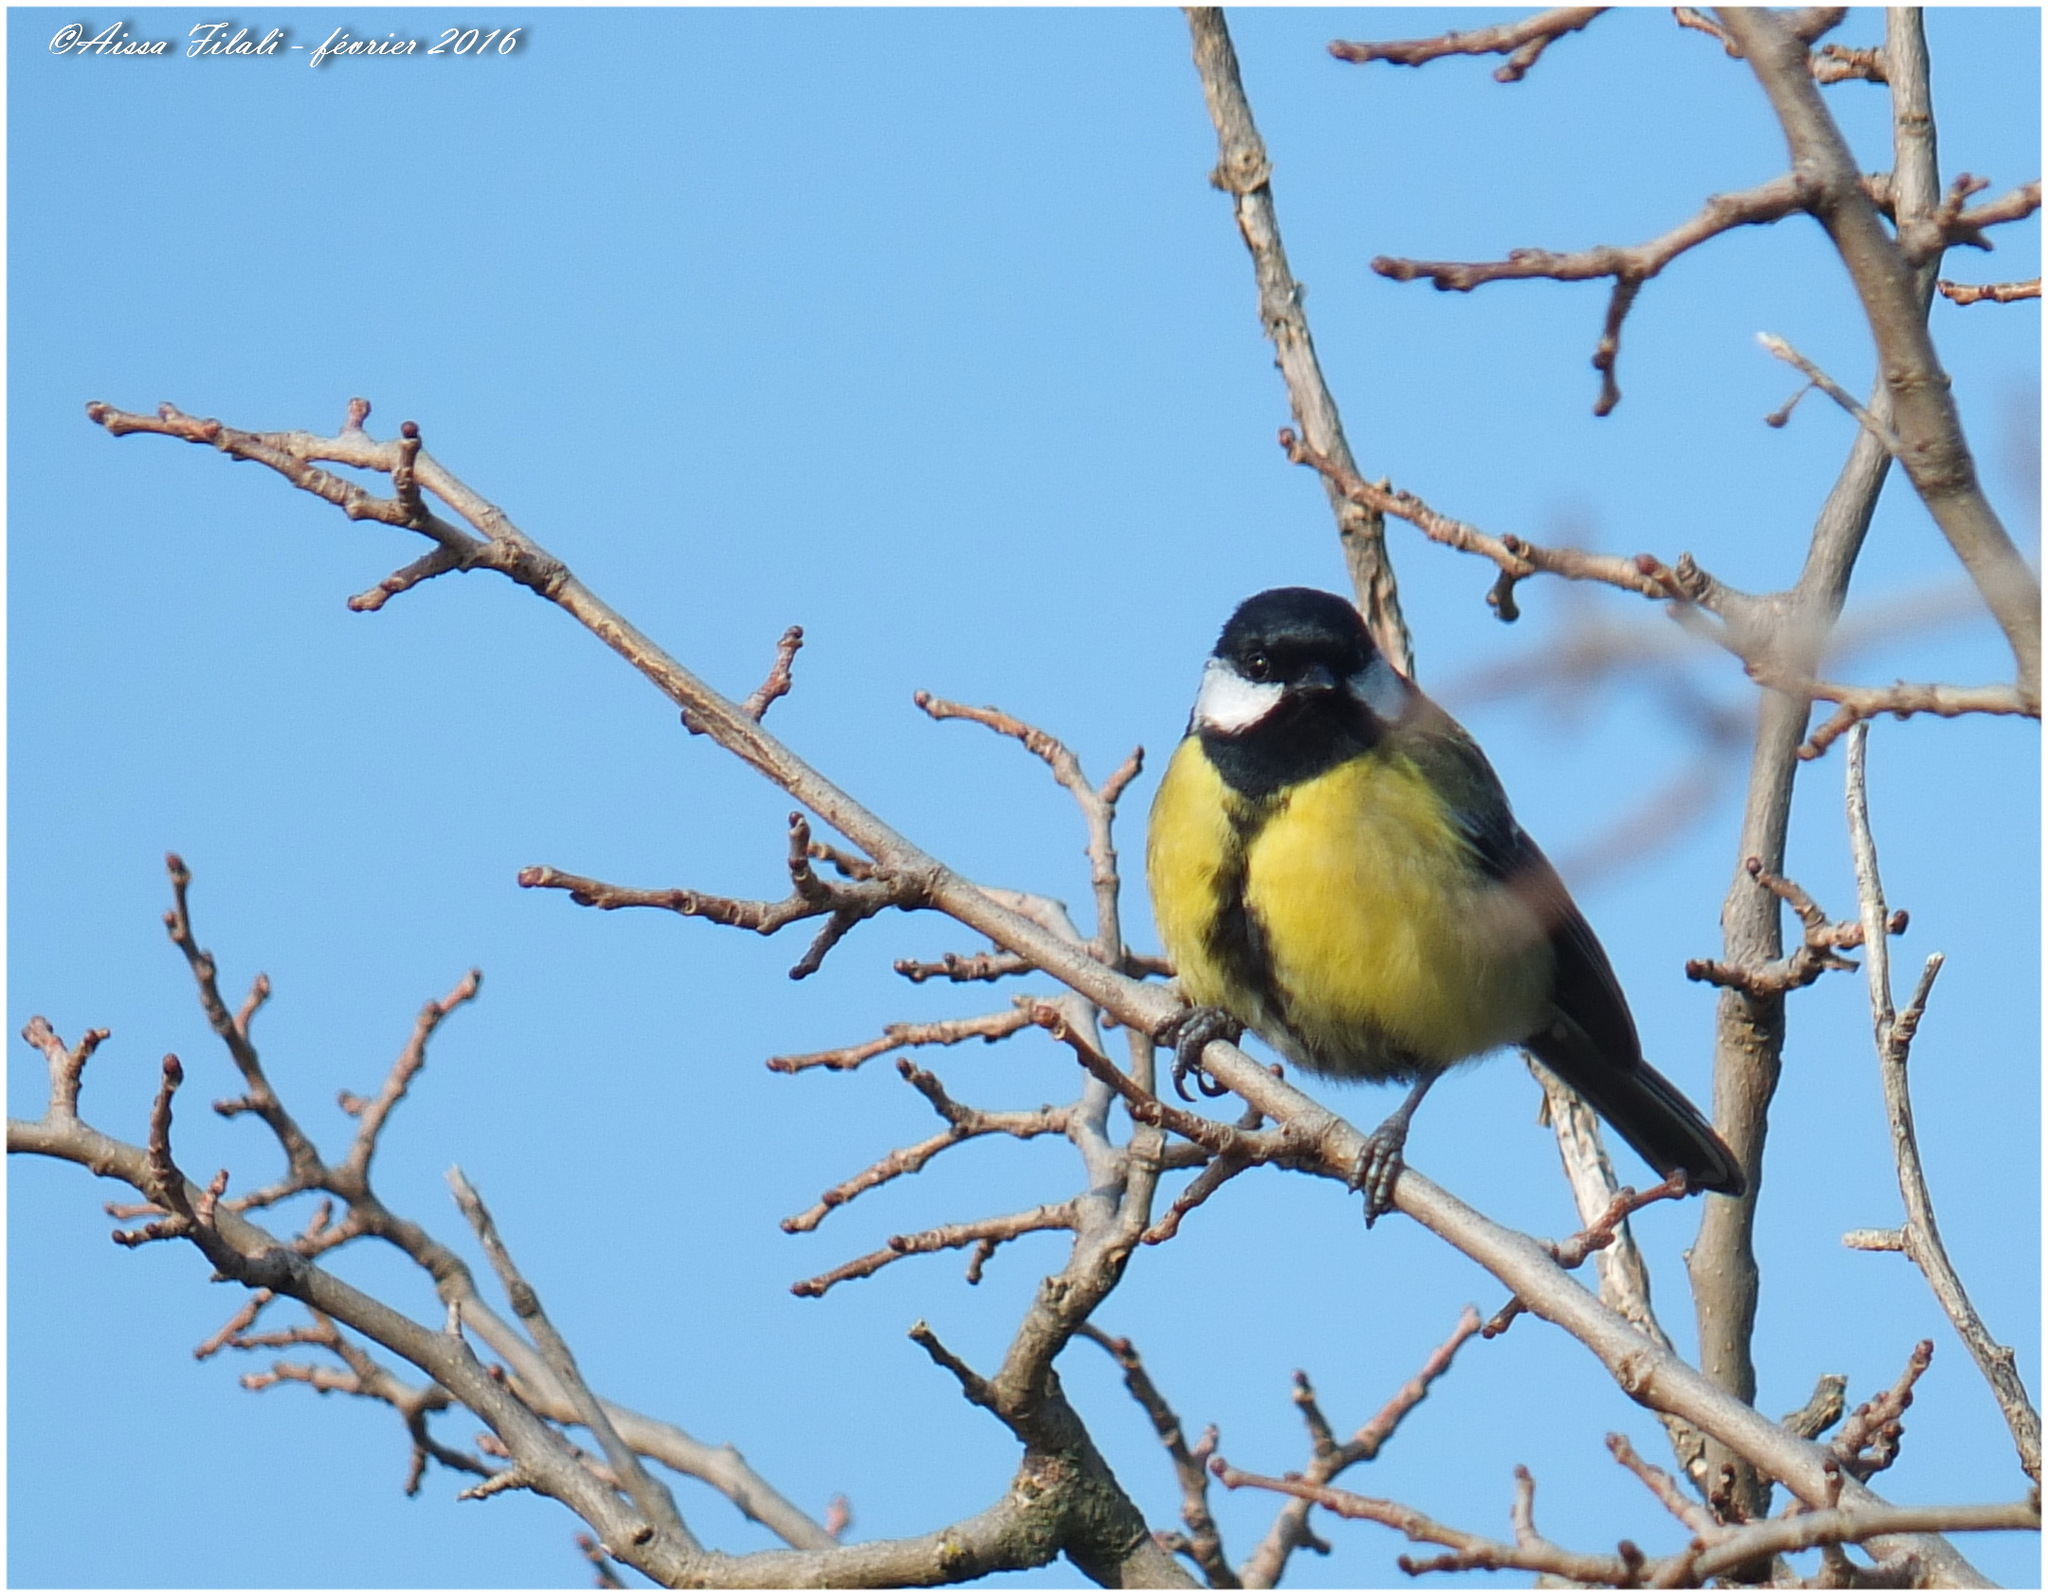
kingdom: Animalia
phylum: Chordata
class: Aves
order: Passeriformes
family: Paridae
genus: Parus
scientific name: Parus major
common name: Great tit
